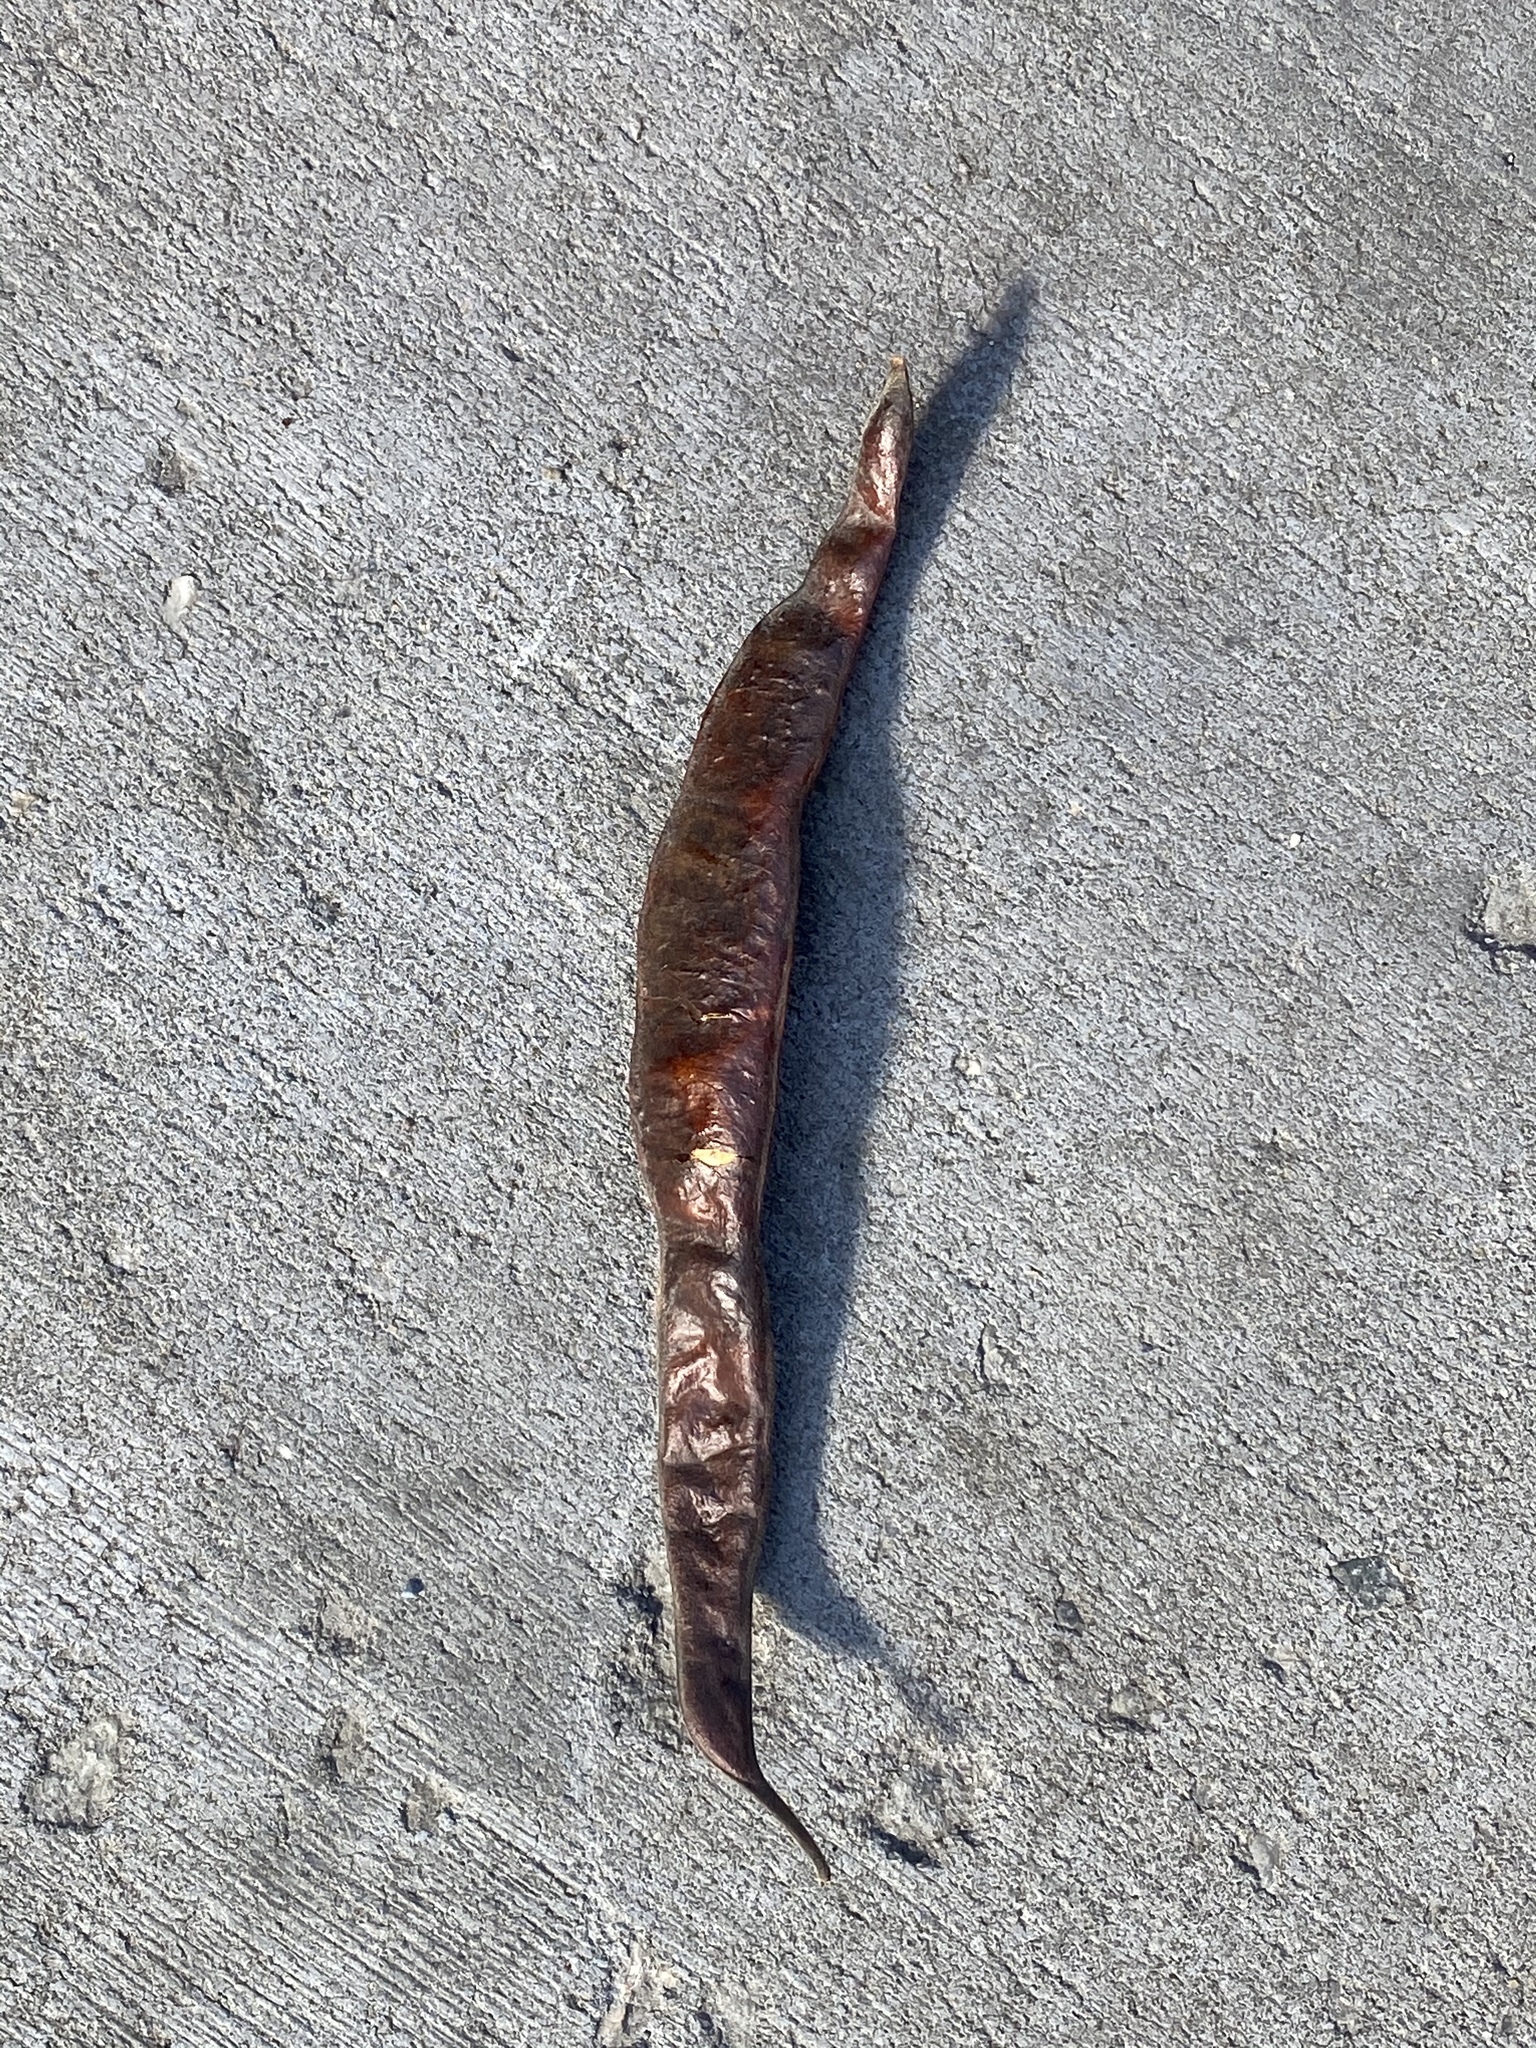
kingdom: Plantae
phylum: Tracheophyta
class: Magnoliopsida
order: Fabales
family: Fabaceae
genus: Gleditsia
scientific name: Gleditsia triacanthos
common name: Common honeylocust
